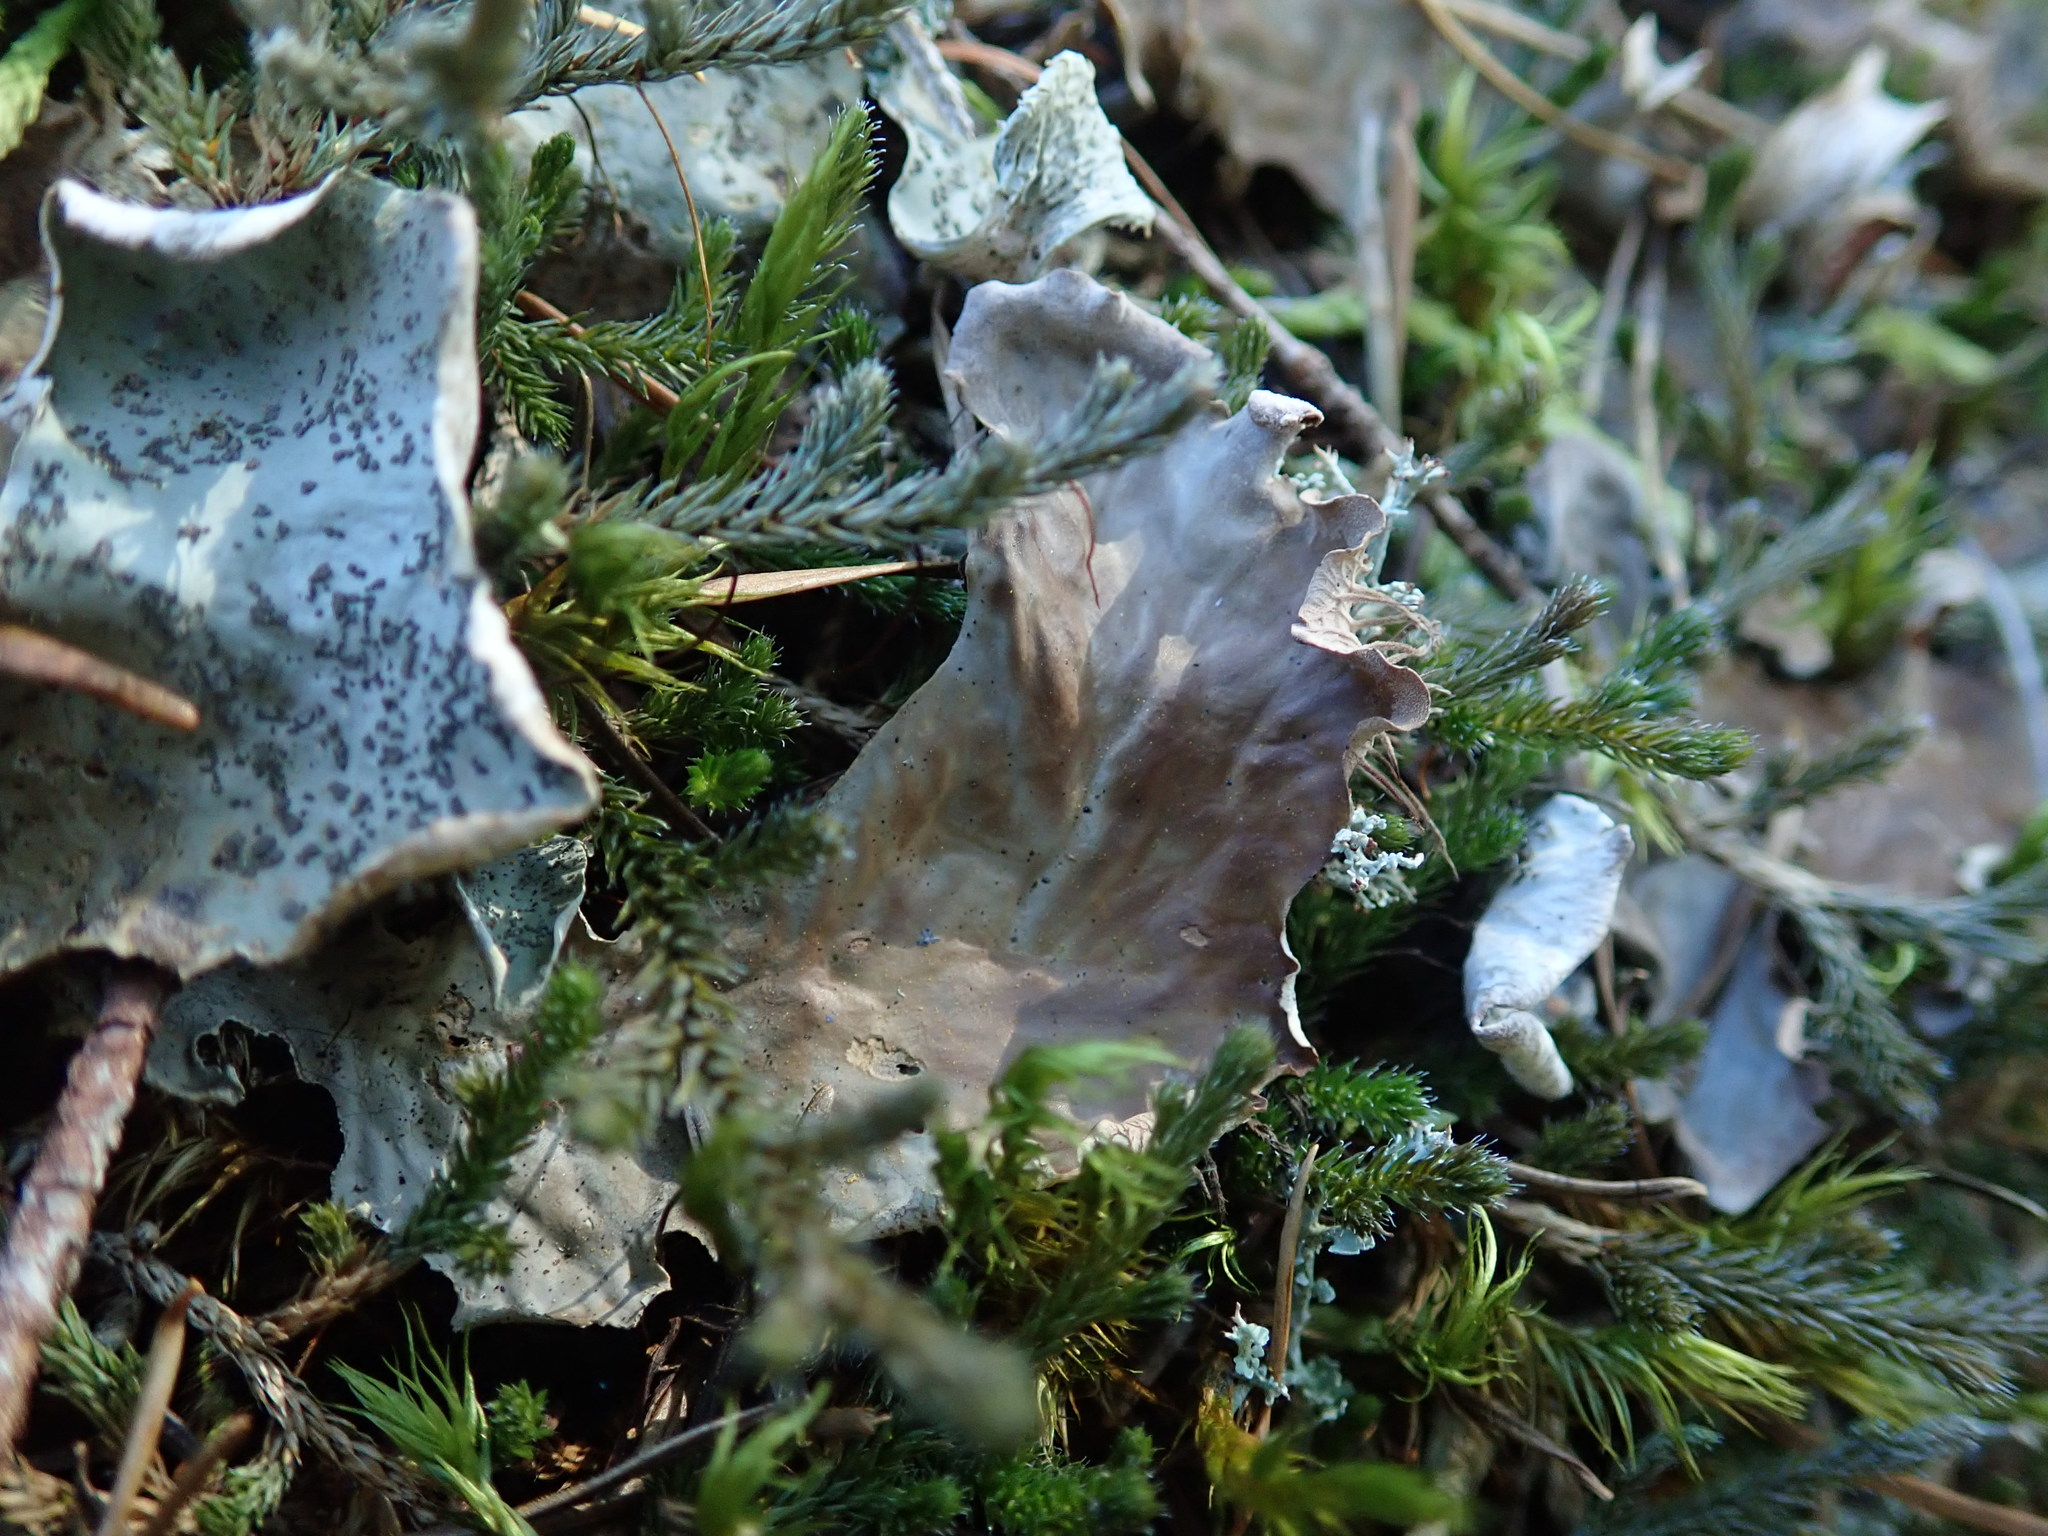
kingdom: Fungi
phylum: Ascomycota
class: Lecanoromycetes
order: Peltigerales
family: Peltigeraceae
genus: Peltigera
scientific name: Peltigera britannica
